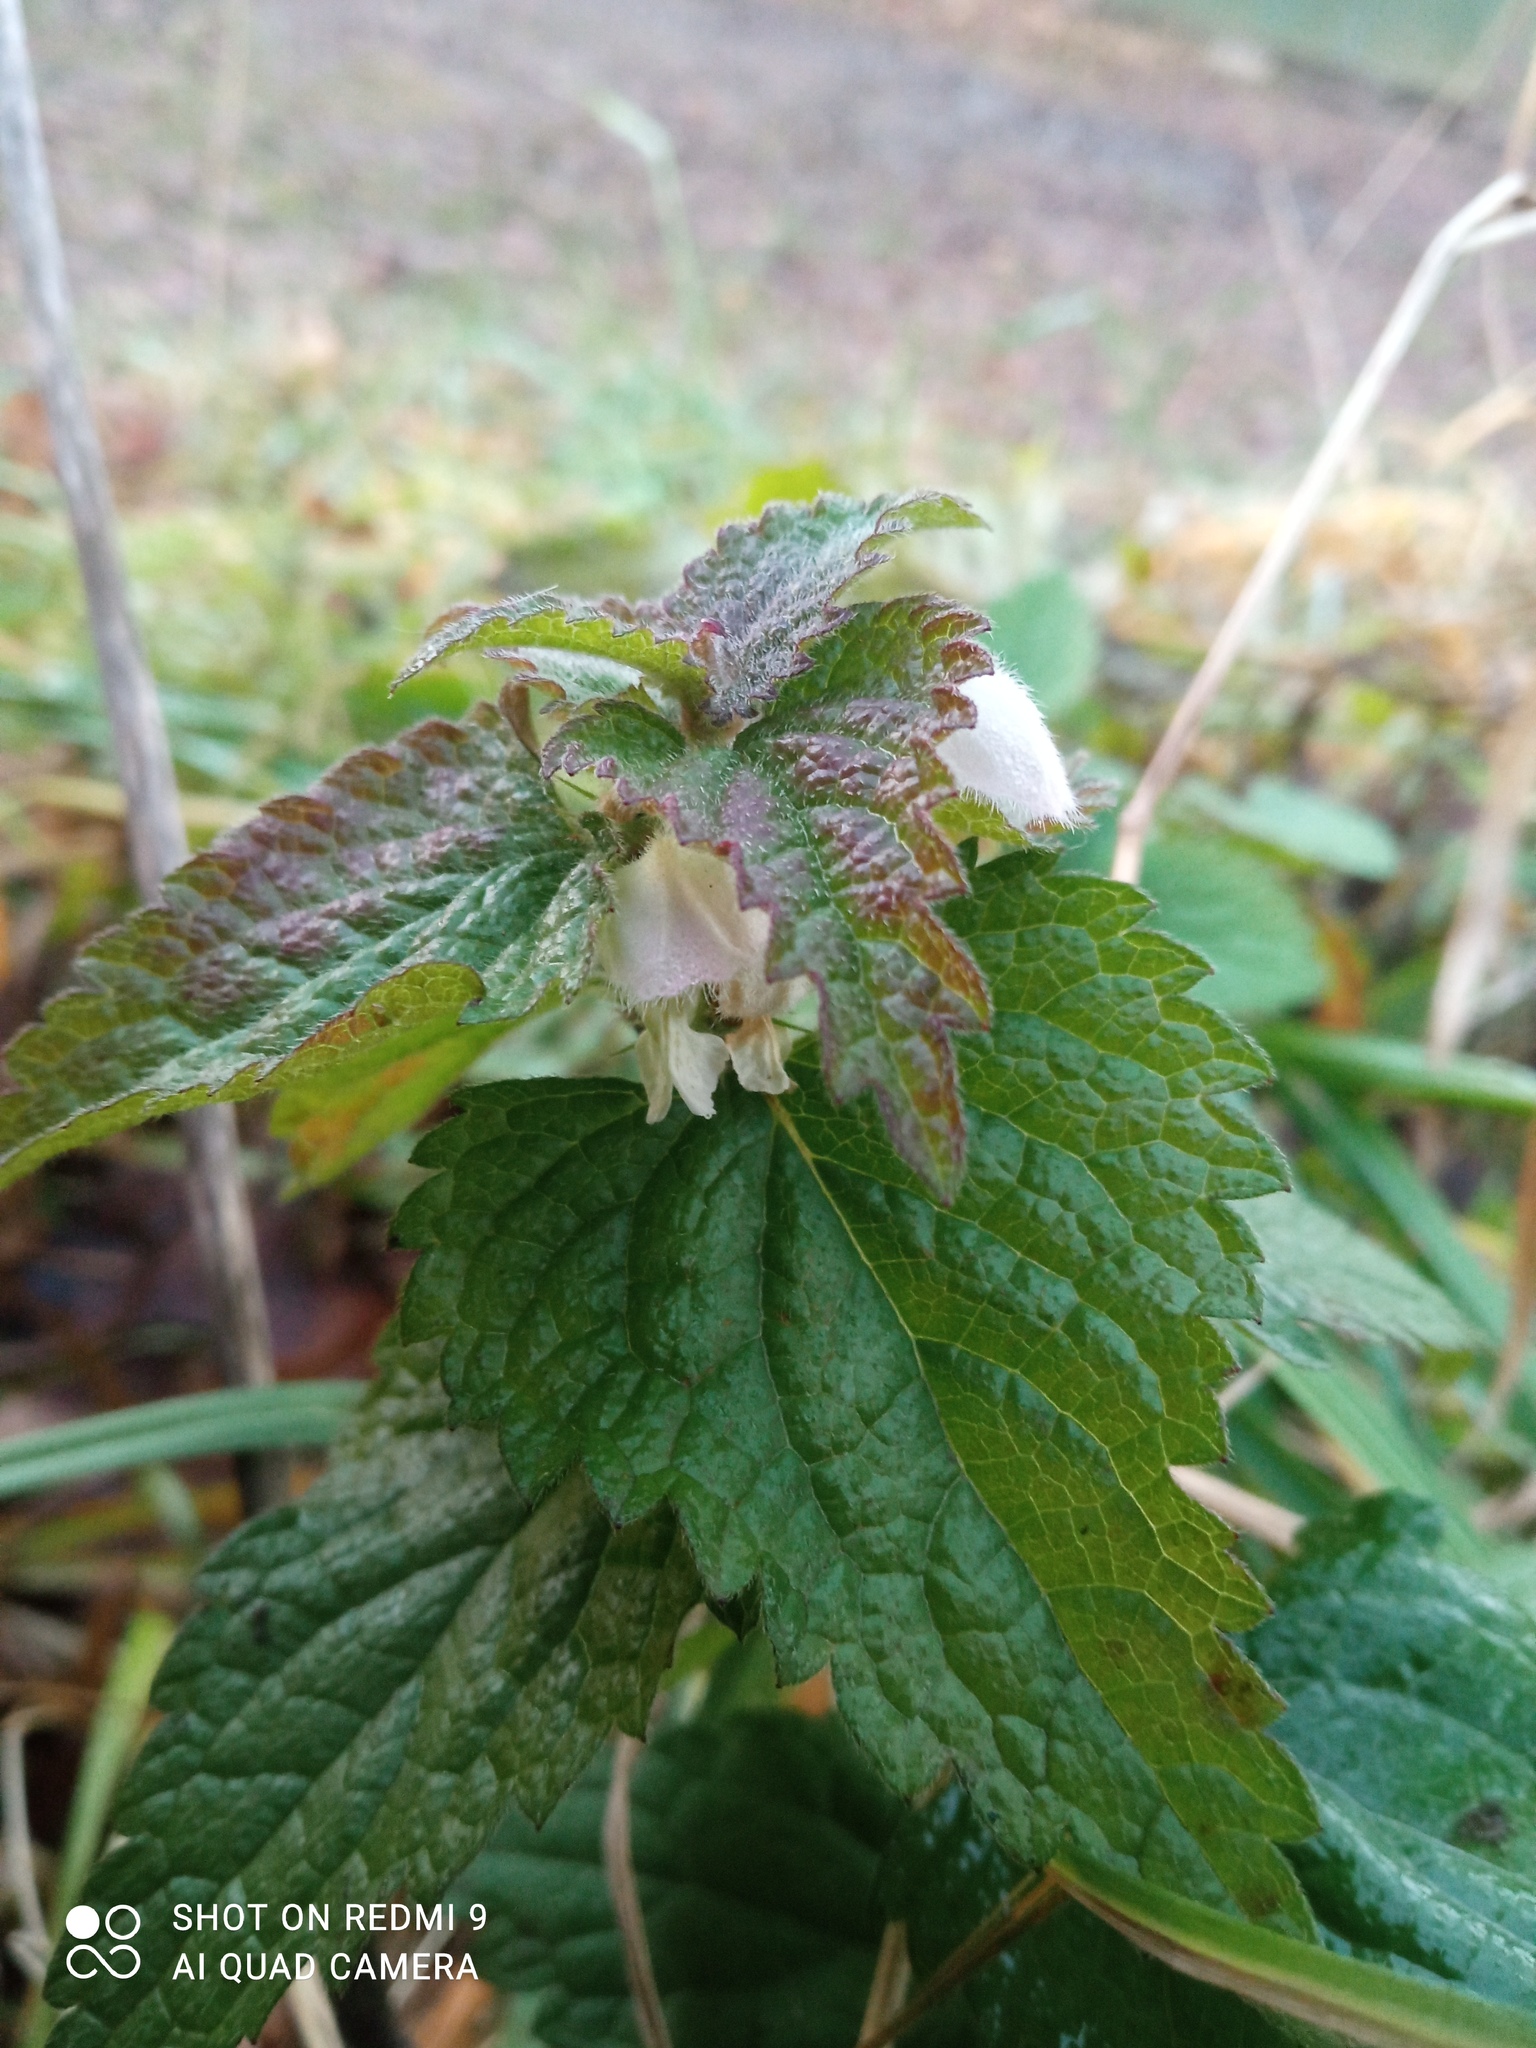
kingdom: Plantae
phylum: Tracheophyta
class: Magnoliopsida
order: Lamiales
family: Lamiaceae
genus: Lamium
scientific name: Lamium album
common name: White dead-nettle
